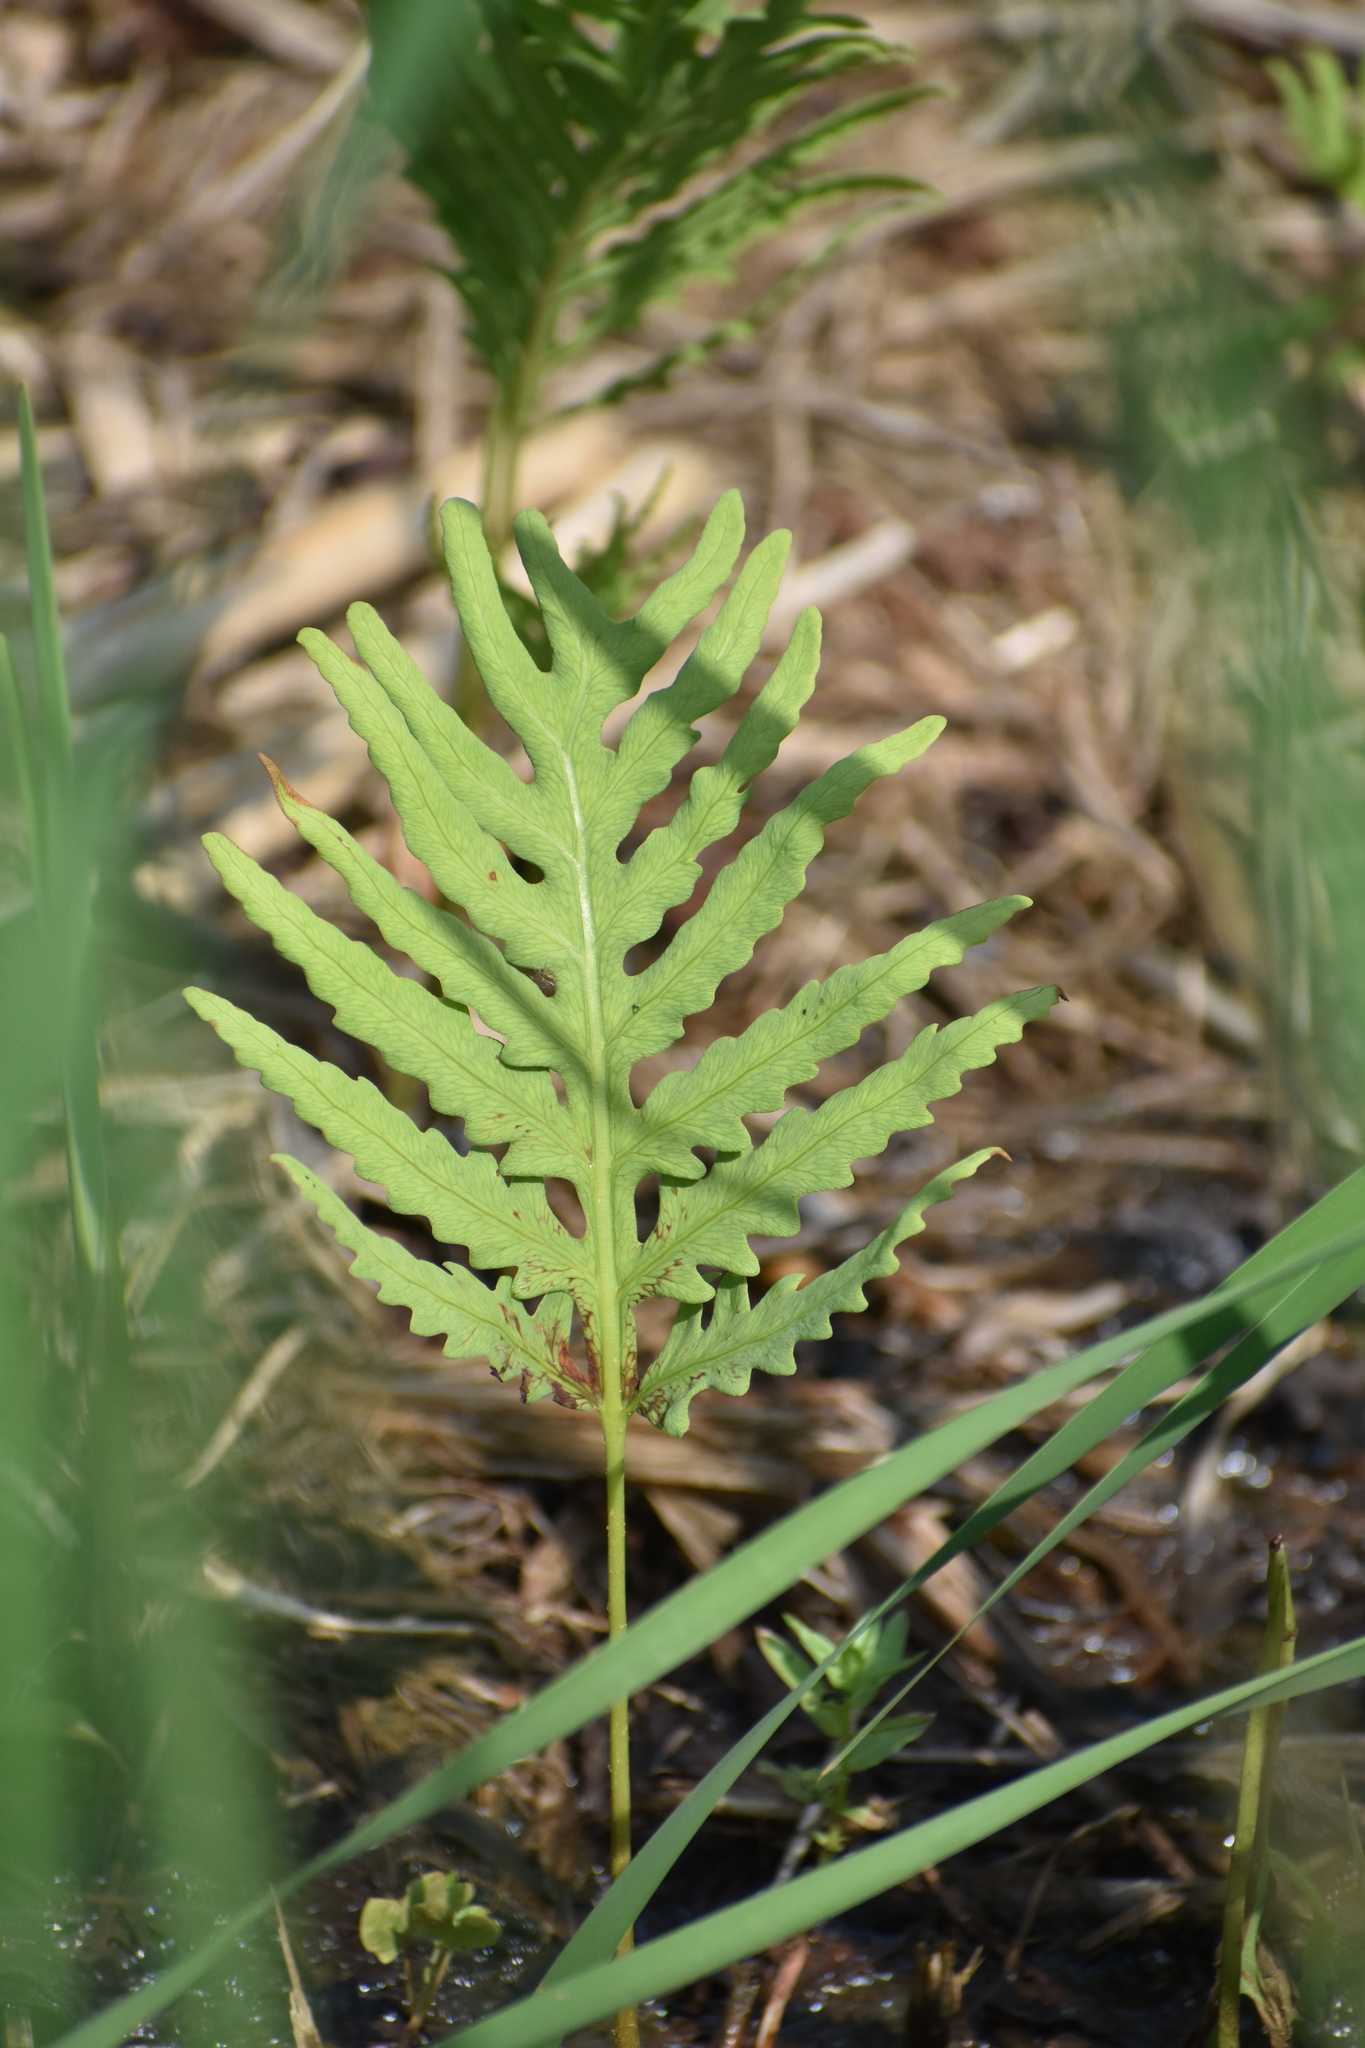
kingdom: Plantae
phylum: Tracheophyta
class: Polypodiopsida
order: Polypodiales
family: Onocleaceae
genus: Onoclea
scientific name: Onoclea sensibilis
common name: Sensitive fern
